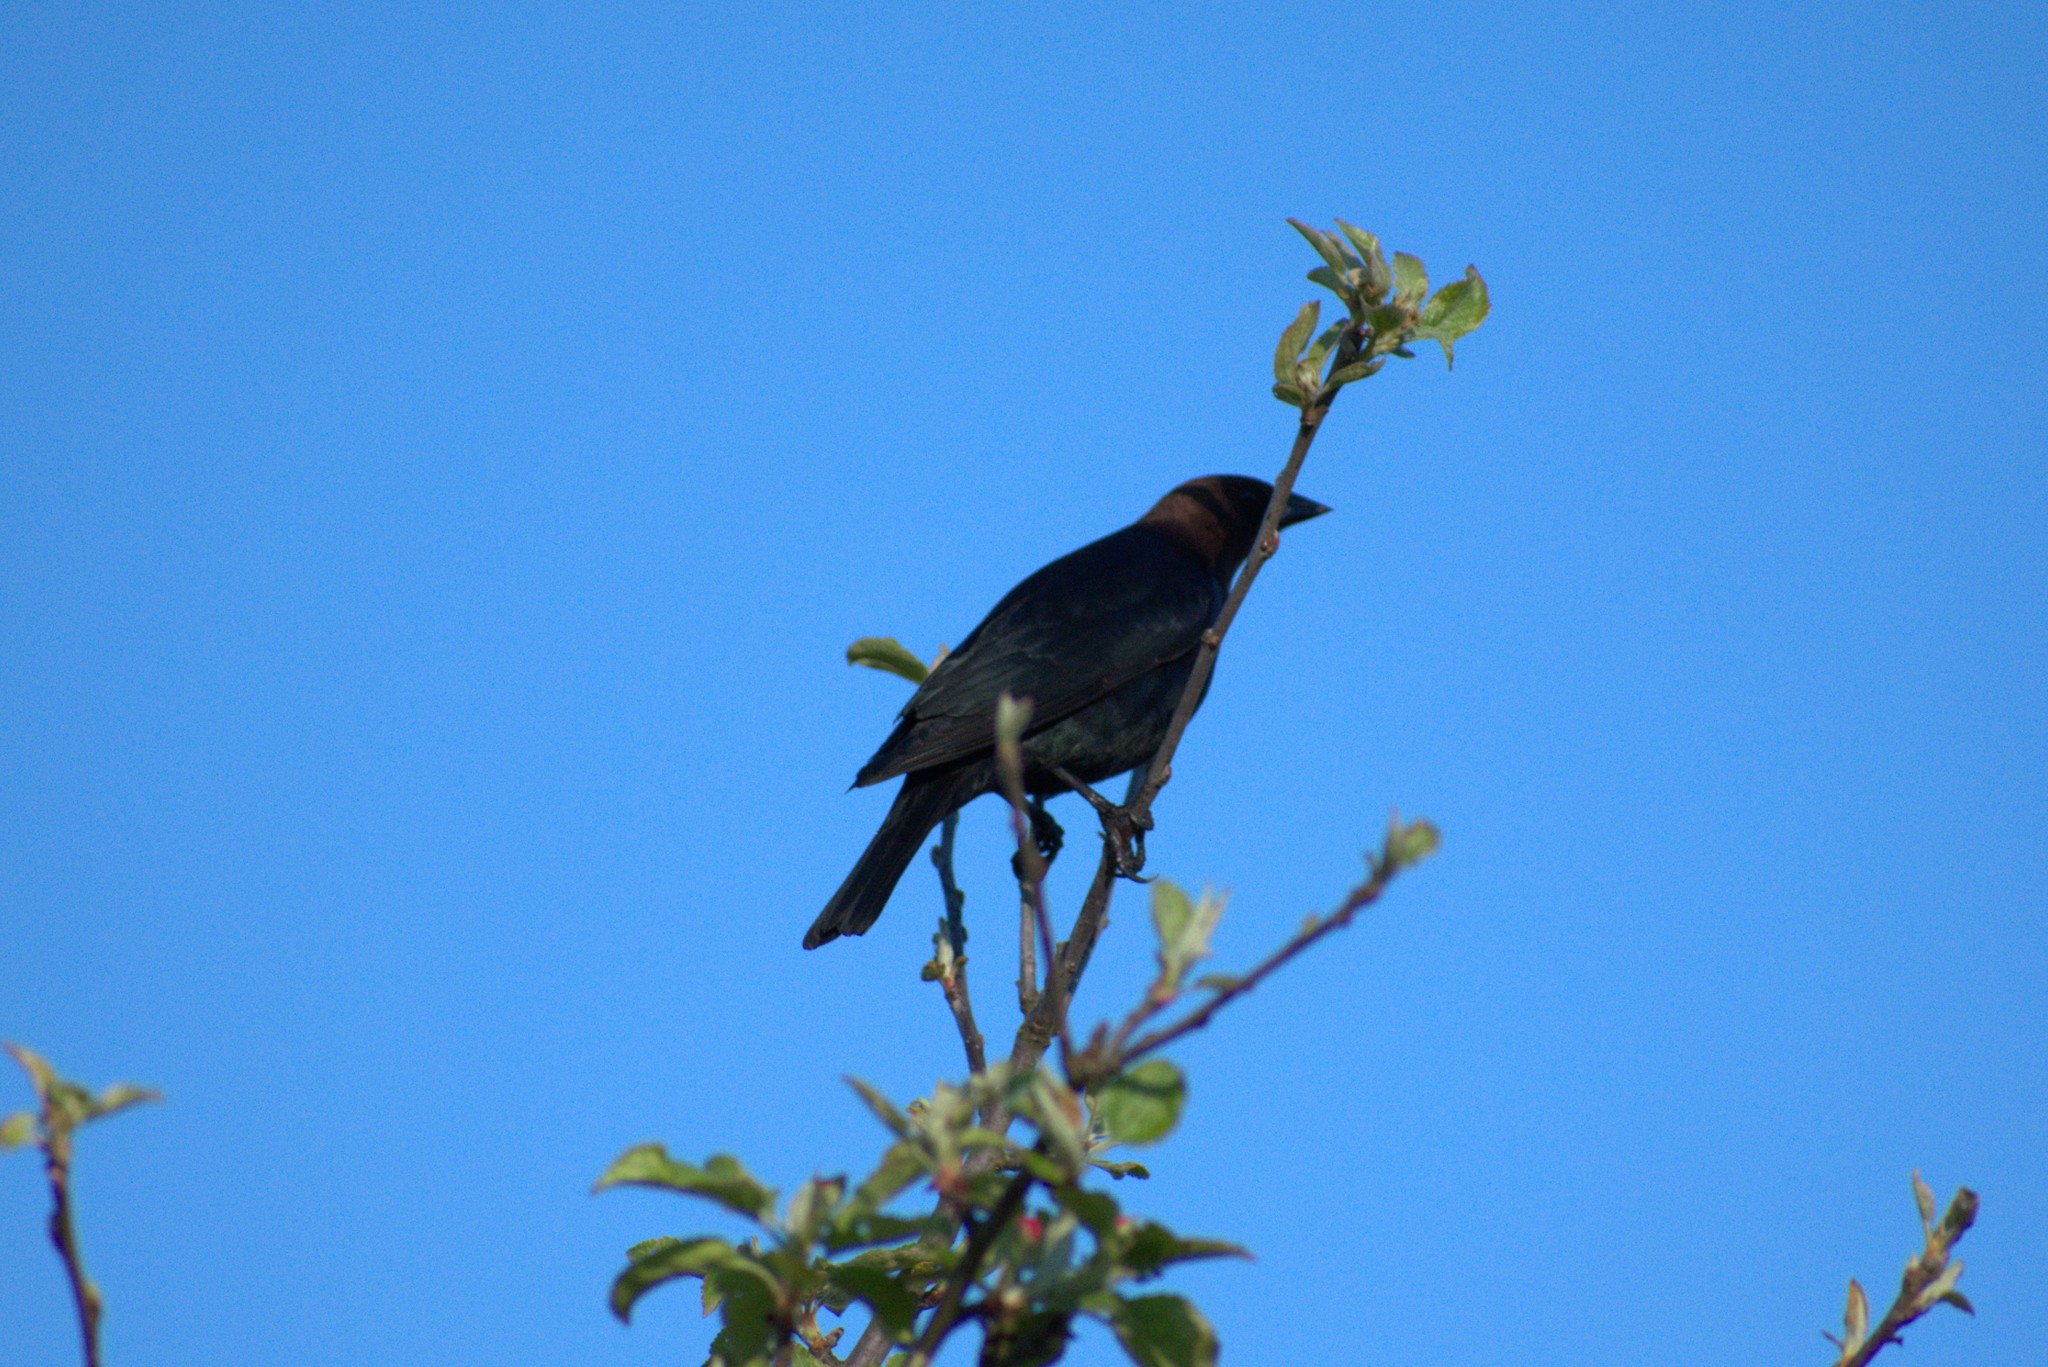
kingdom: Animalia
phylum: Chordata
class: Aves
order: Passeriformes
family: Icteridae
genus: Molothrus
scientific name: Molothrus ater
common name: Brown-headed cowbird
